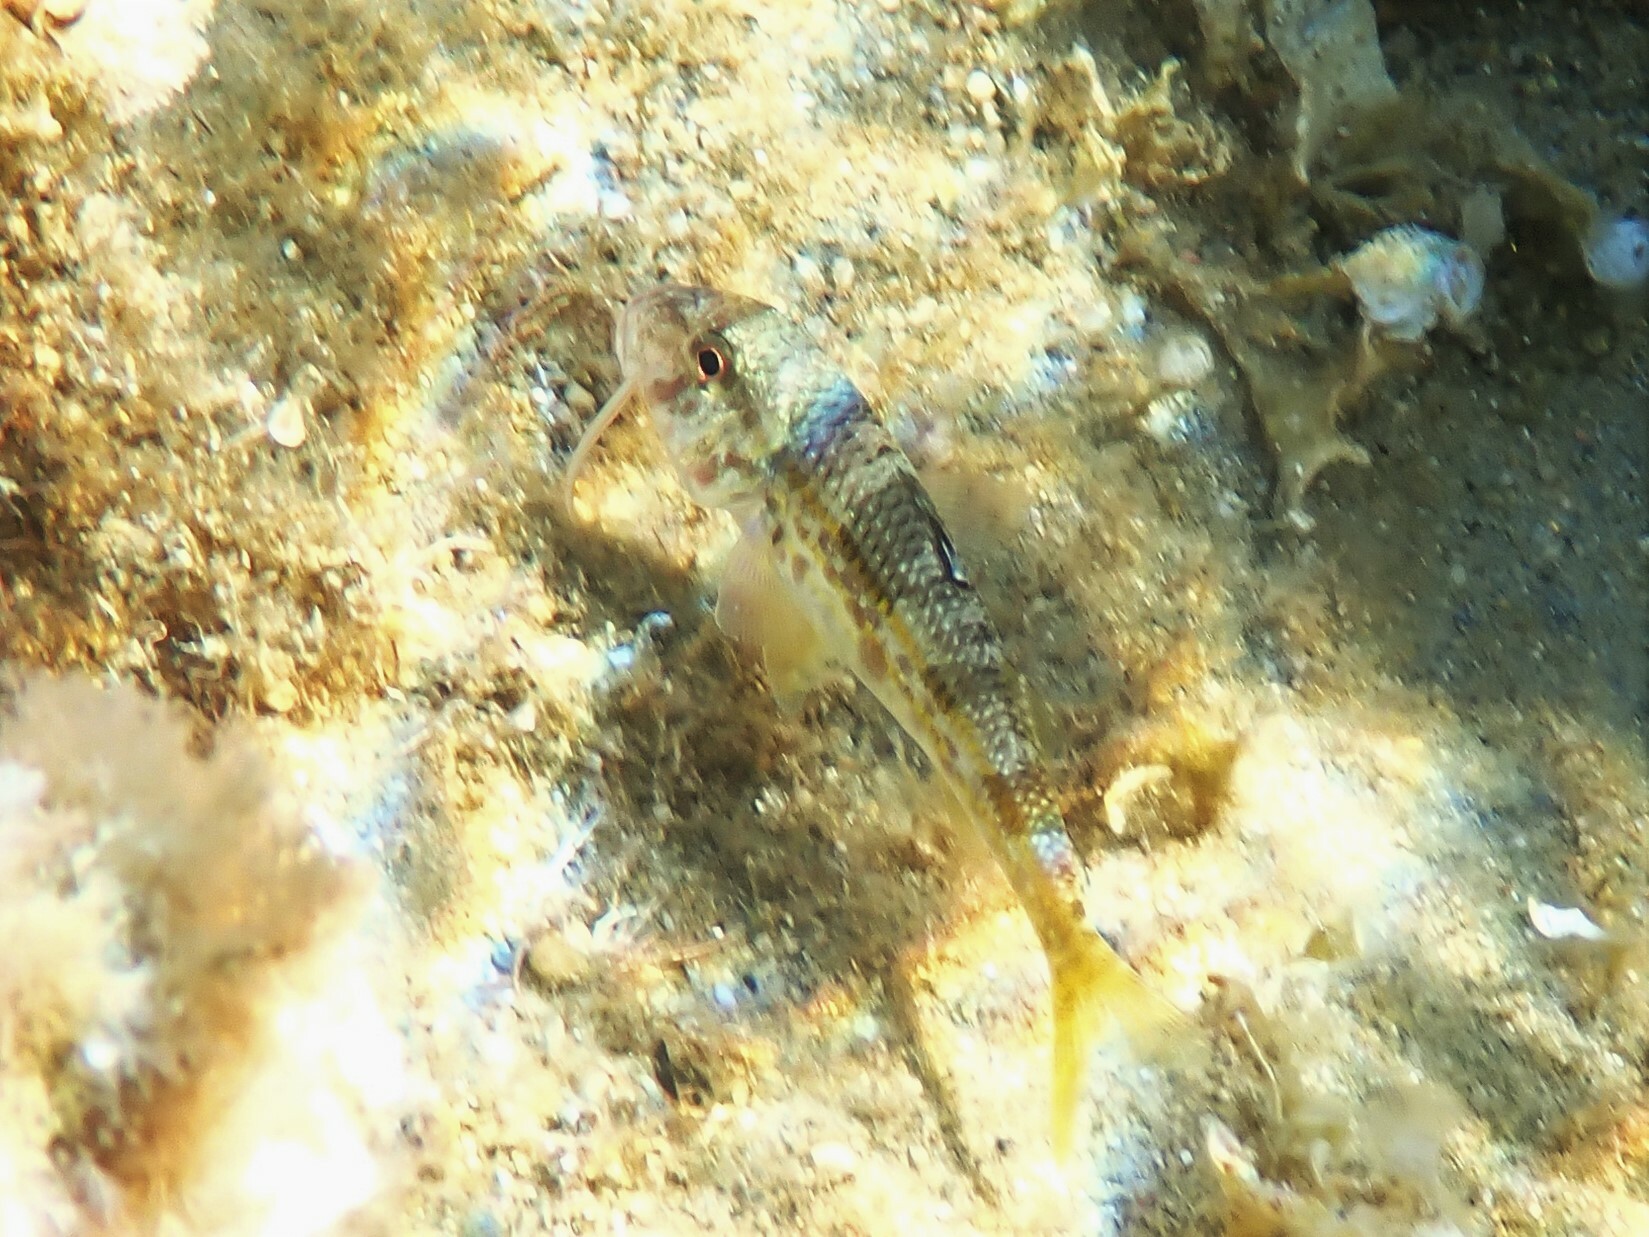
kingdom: Animalia
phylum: Chordata
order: Perciformes
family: Mullidae
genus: Mullus
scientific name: Mullus surmuletus
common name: Red mullet
